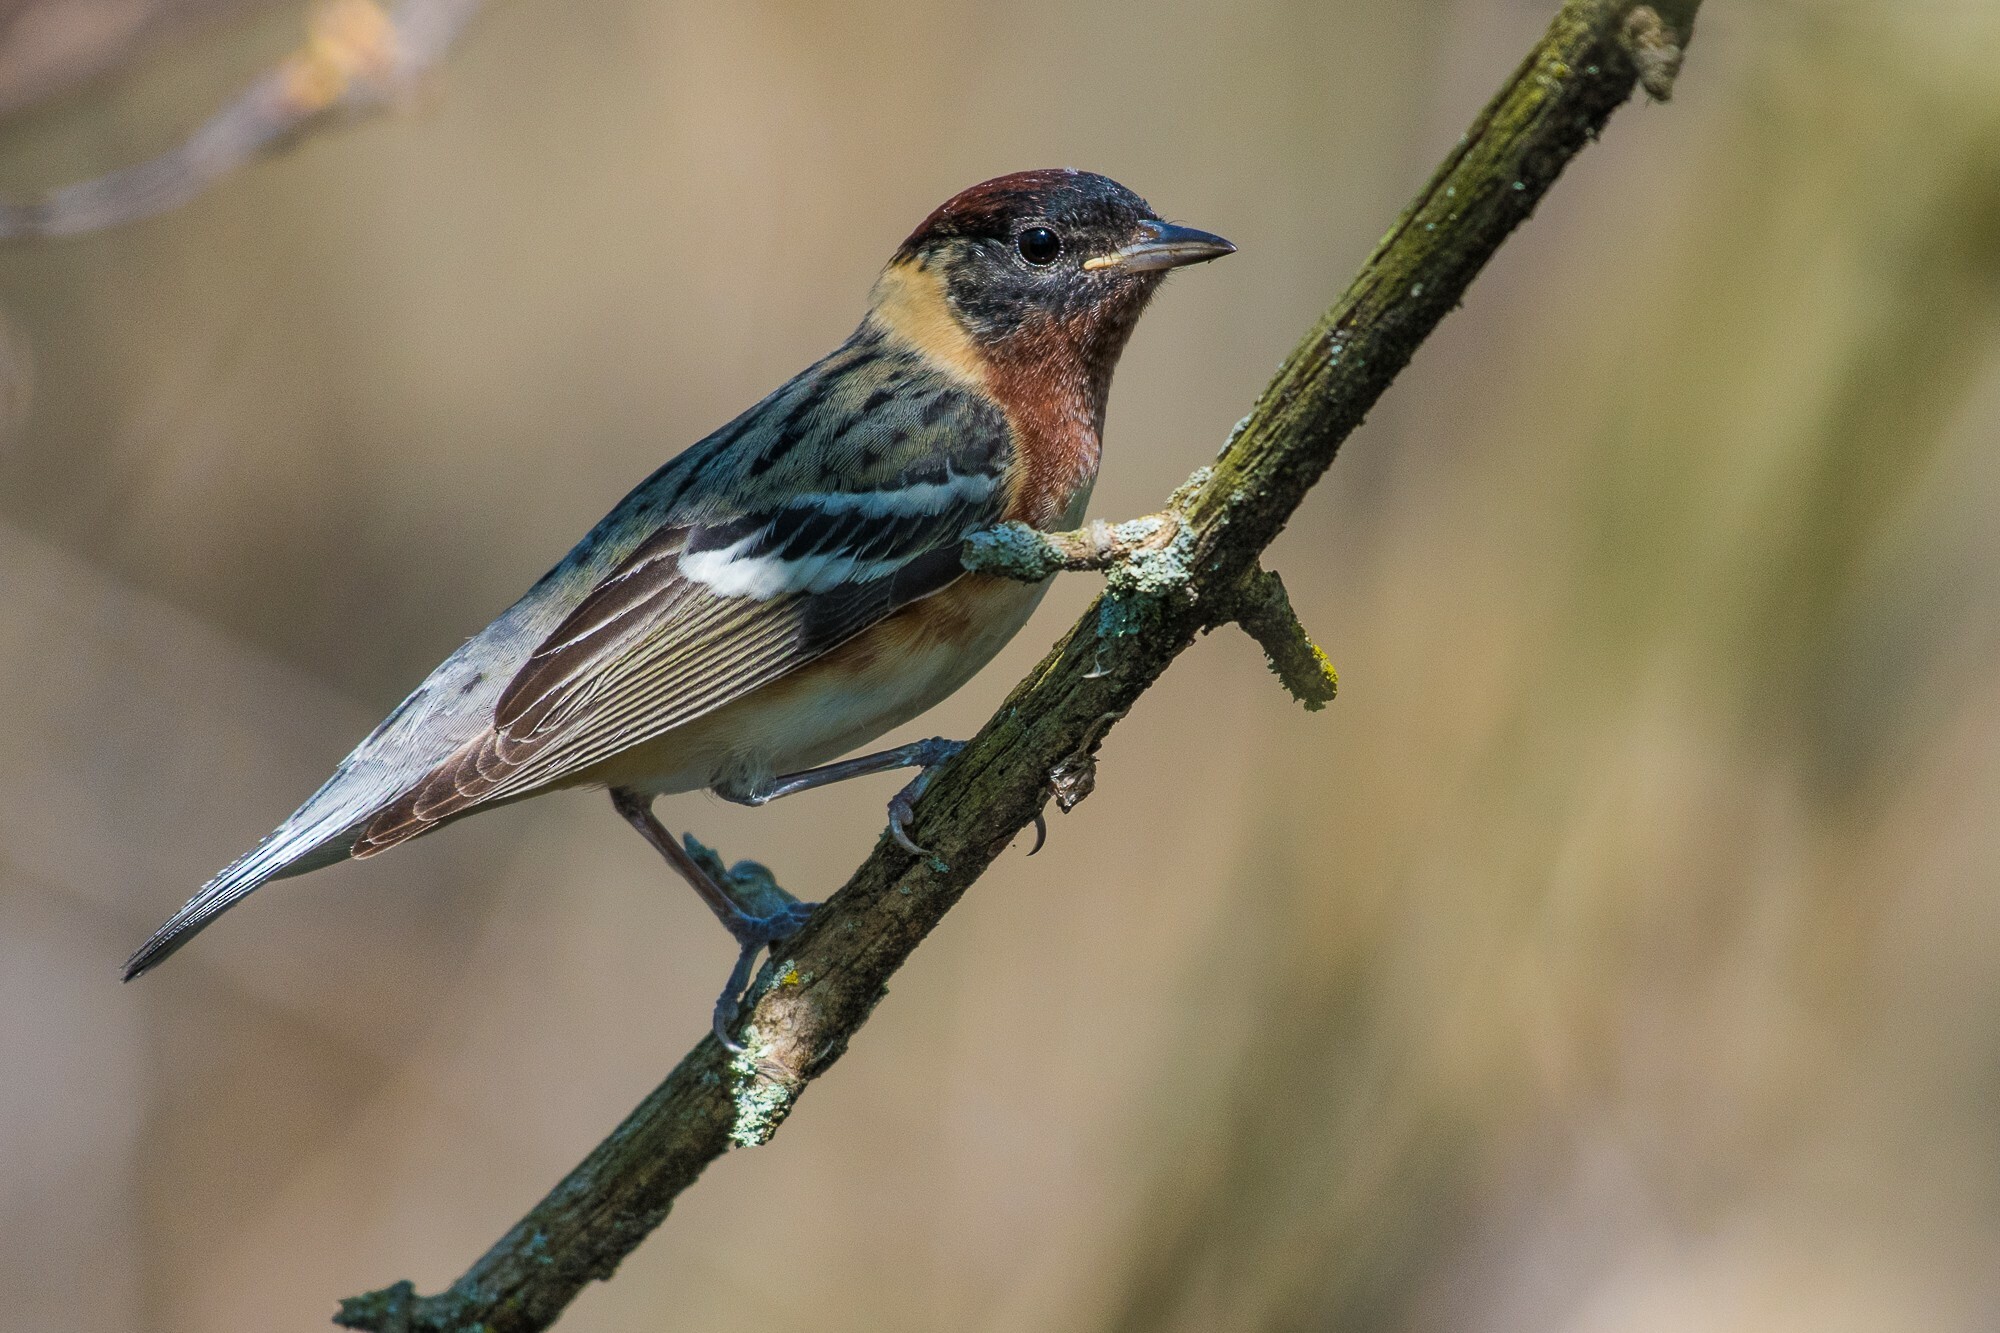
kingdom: Animalia
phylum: Chordata
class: Aves
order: Passeriformes
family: Parulidae
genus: Setophaga
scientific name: Setophaga castanea
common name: Bay-breasted warbler
